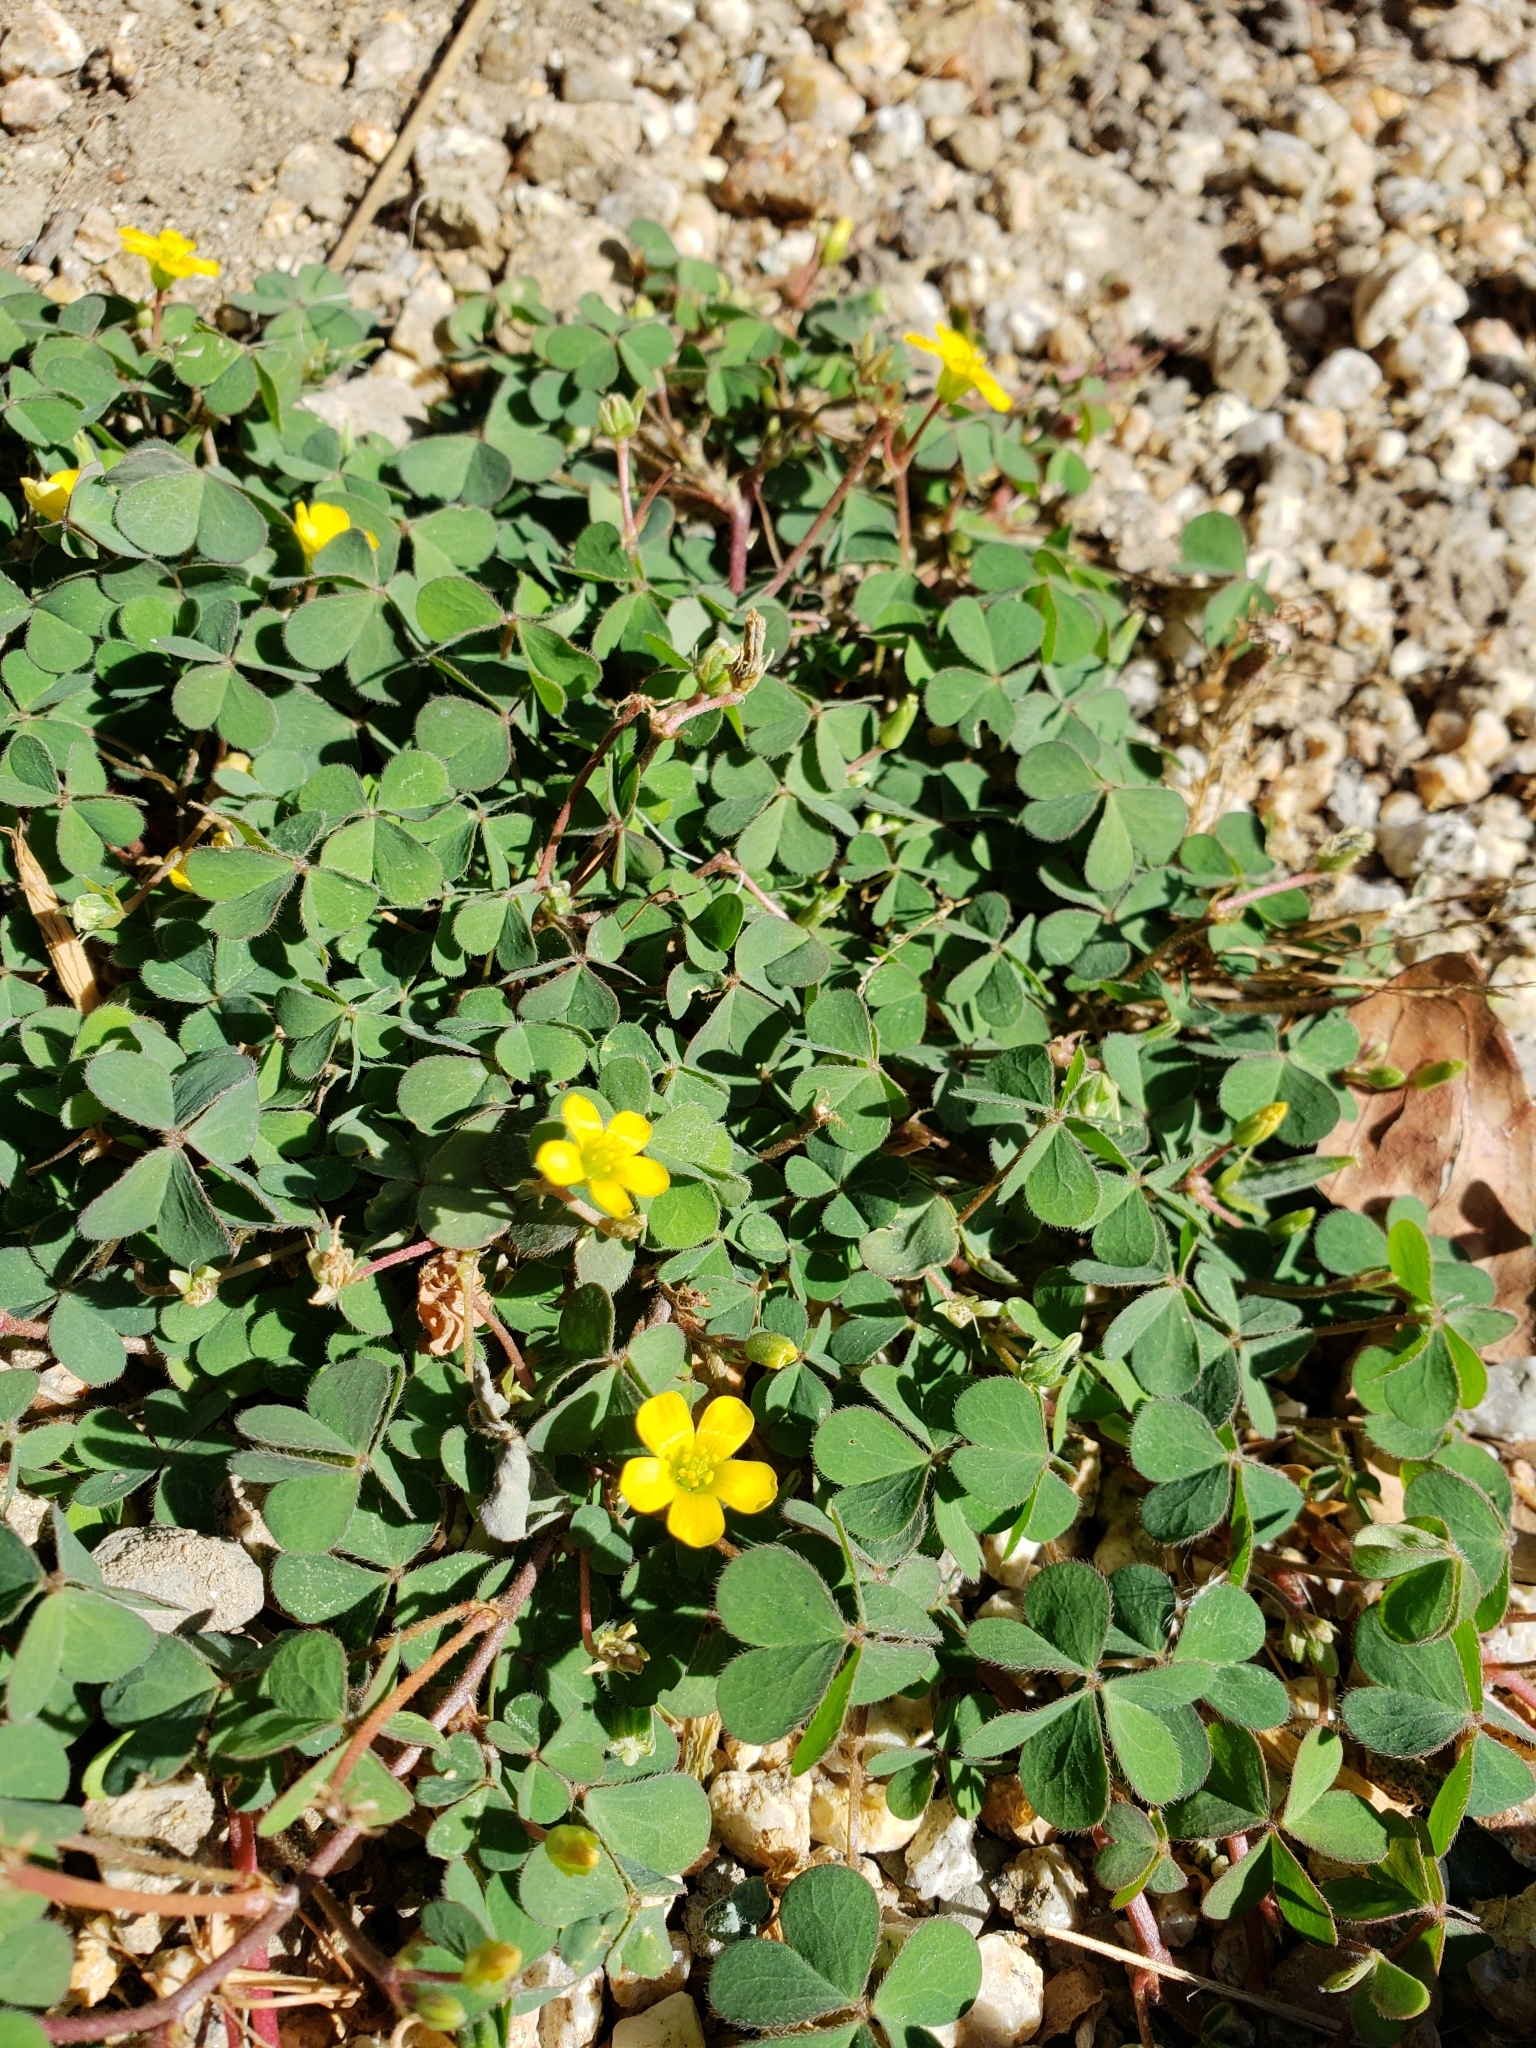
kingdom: Plantae
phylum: Tracheophyta
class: Magnoliopsida
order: Oxalidales
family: Oxalidaceae
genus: Oxalis
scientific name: Oxalis corniculata
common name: Procumbent yellow-sorrel
